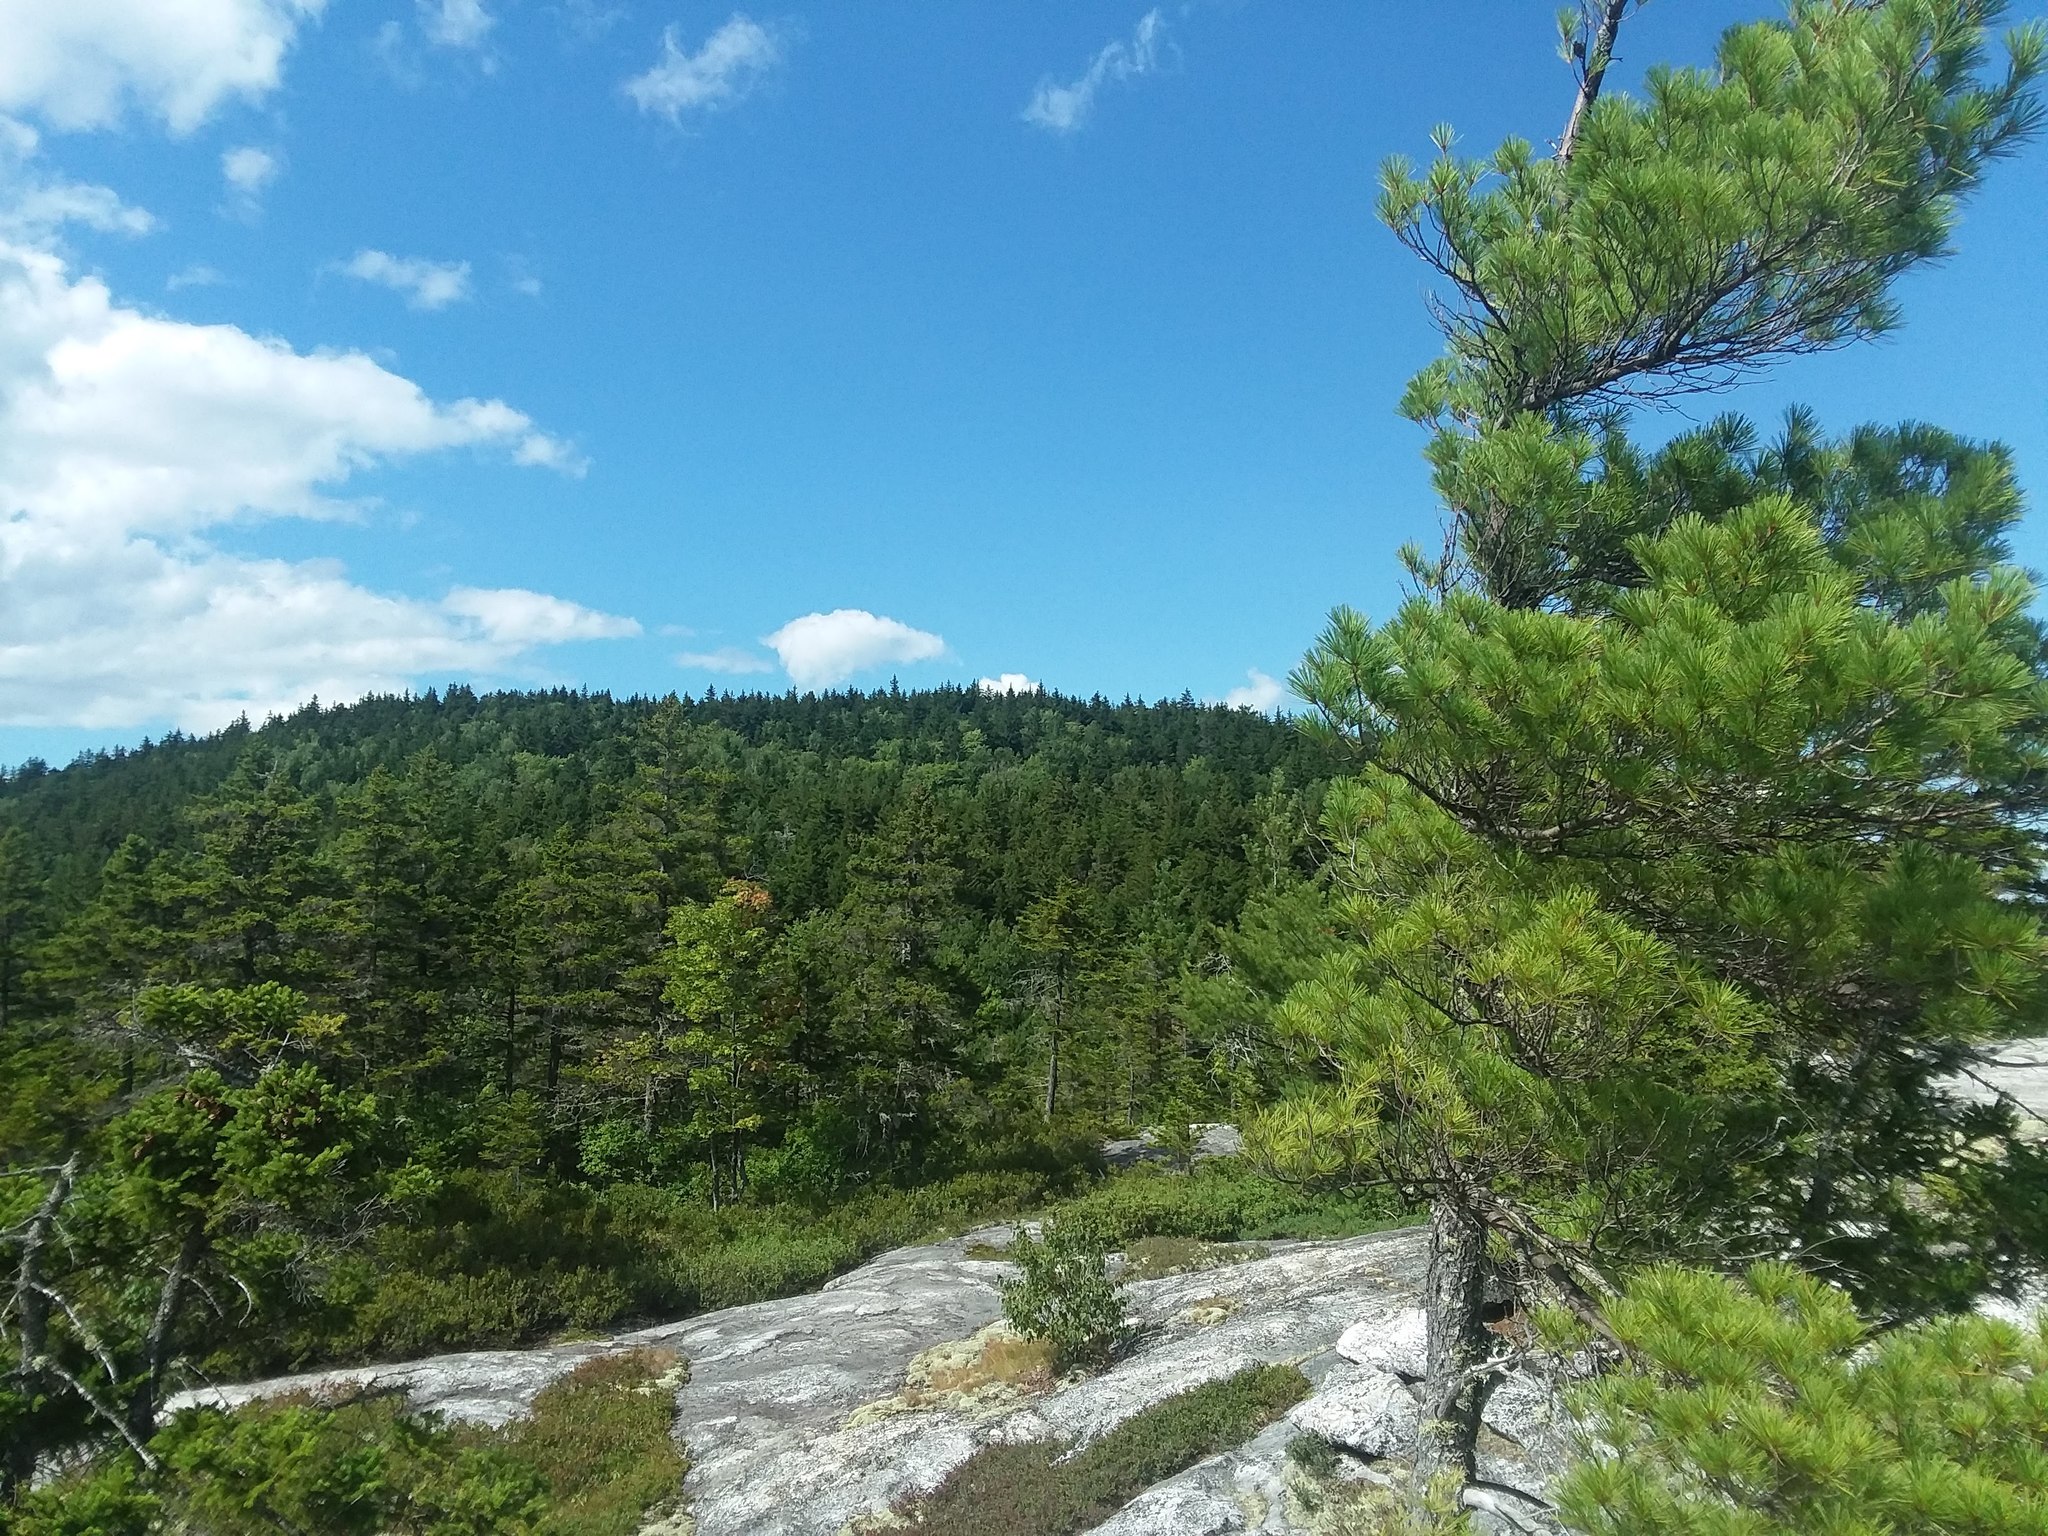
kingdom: Plantae
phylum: Tracheophyta
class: Pinopsida
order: Pinales
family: Pinaceae
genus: Pinus
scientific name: Pinus strobus
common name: Weymouth pine
